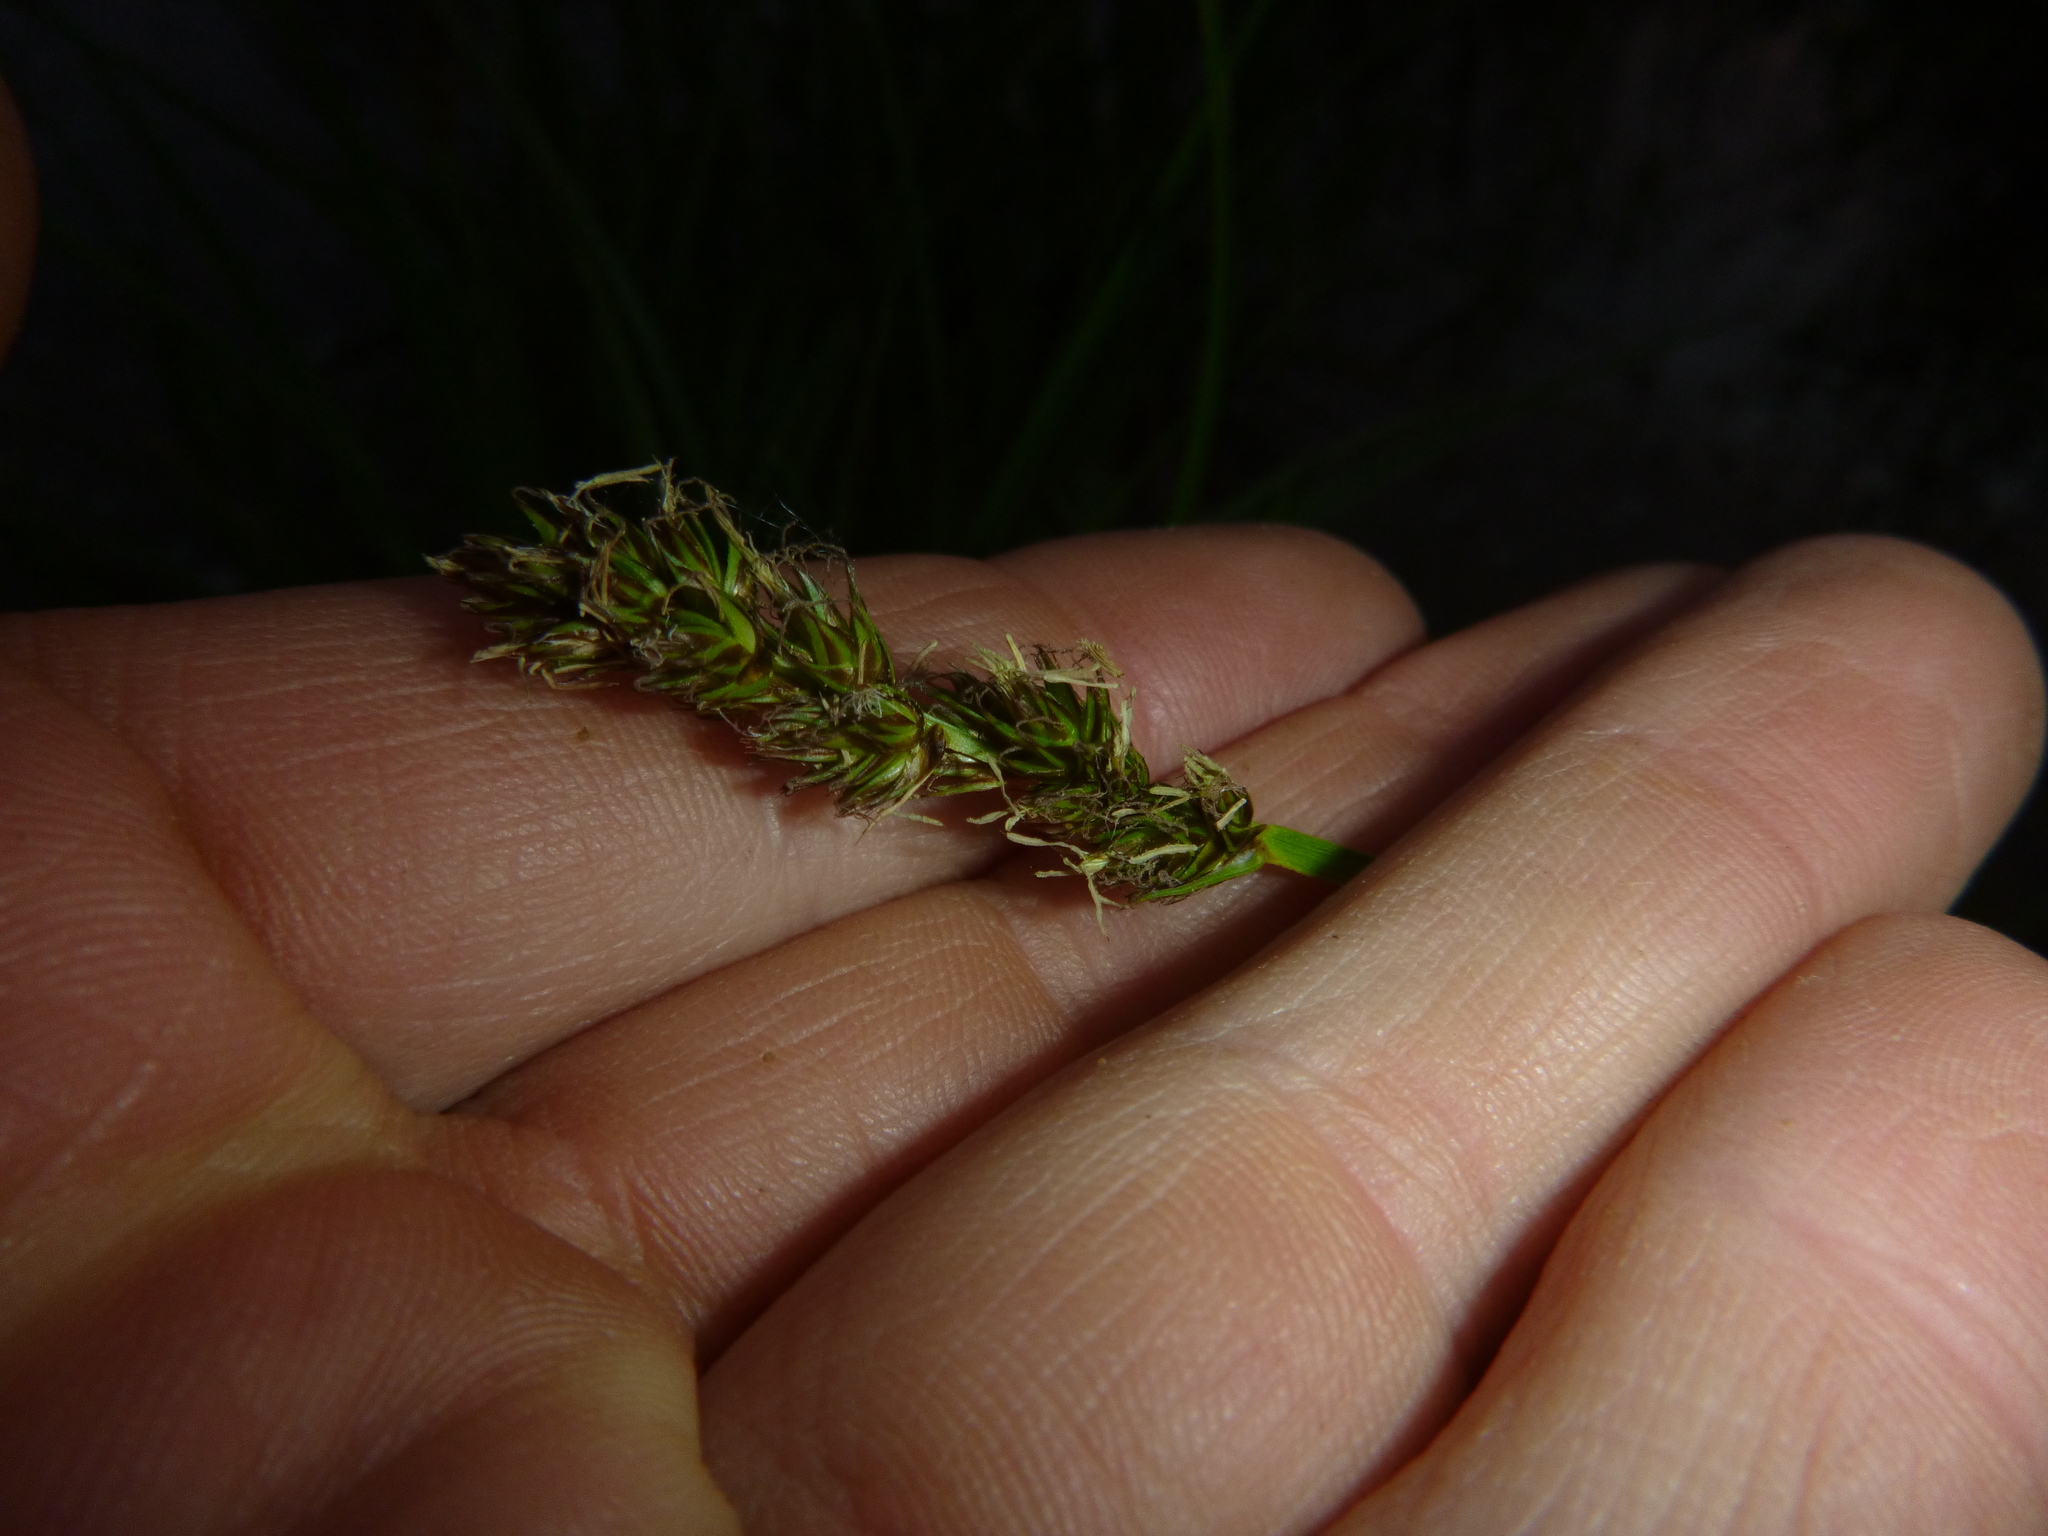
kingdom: Plantae
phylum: Tracheophyta
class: Liliopsida
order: Poales
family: Cyperaceae
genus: Carex
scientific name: Carex vulpina
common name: True fox-sedge
